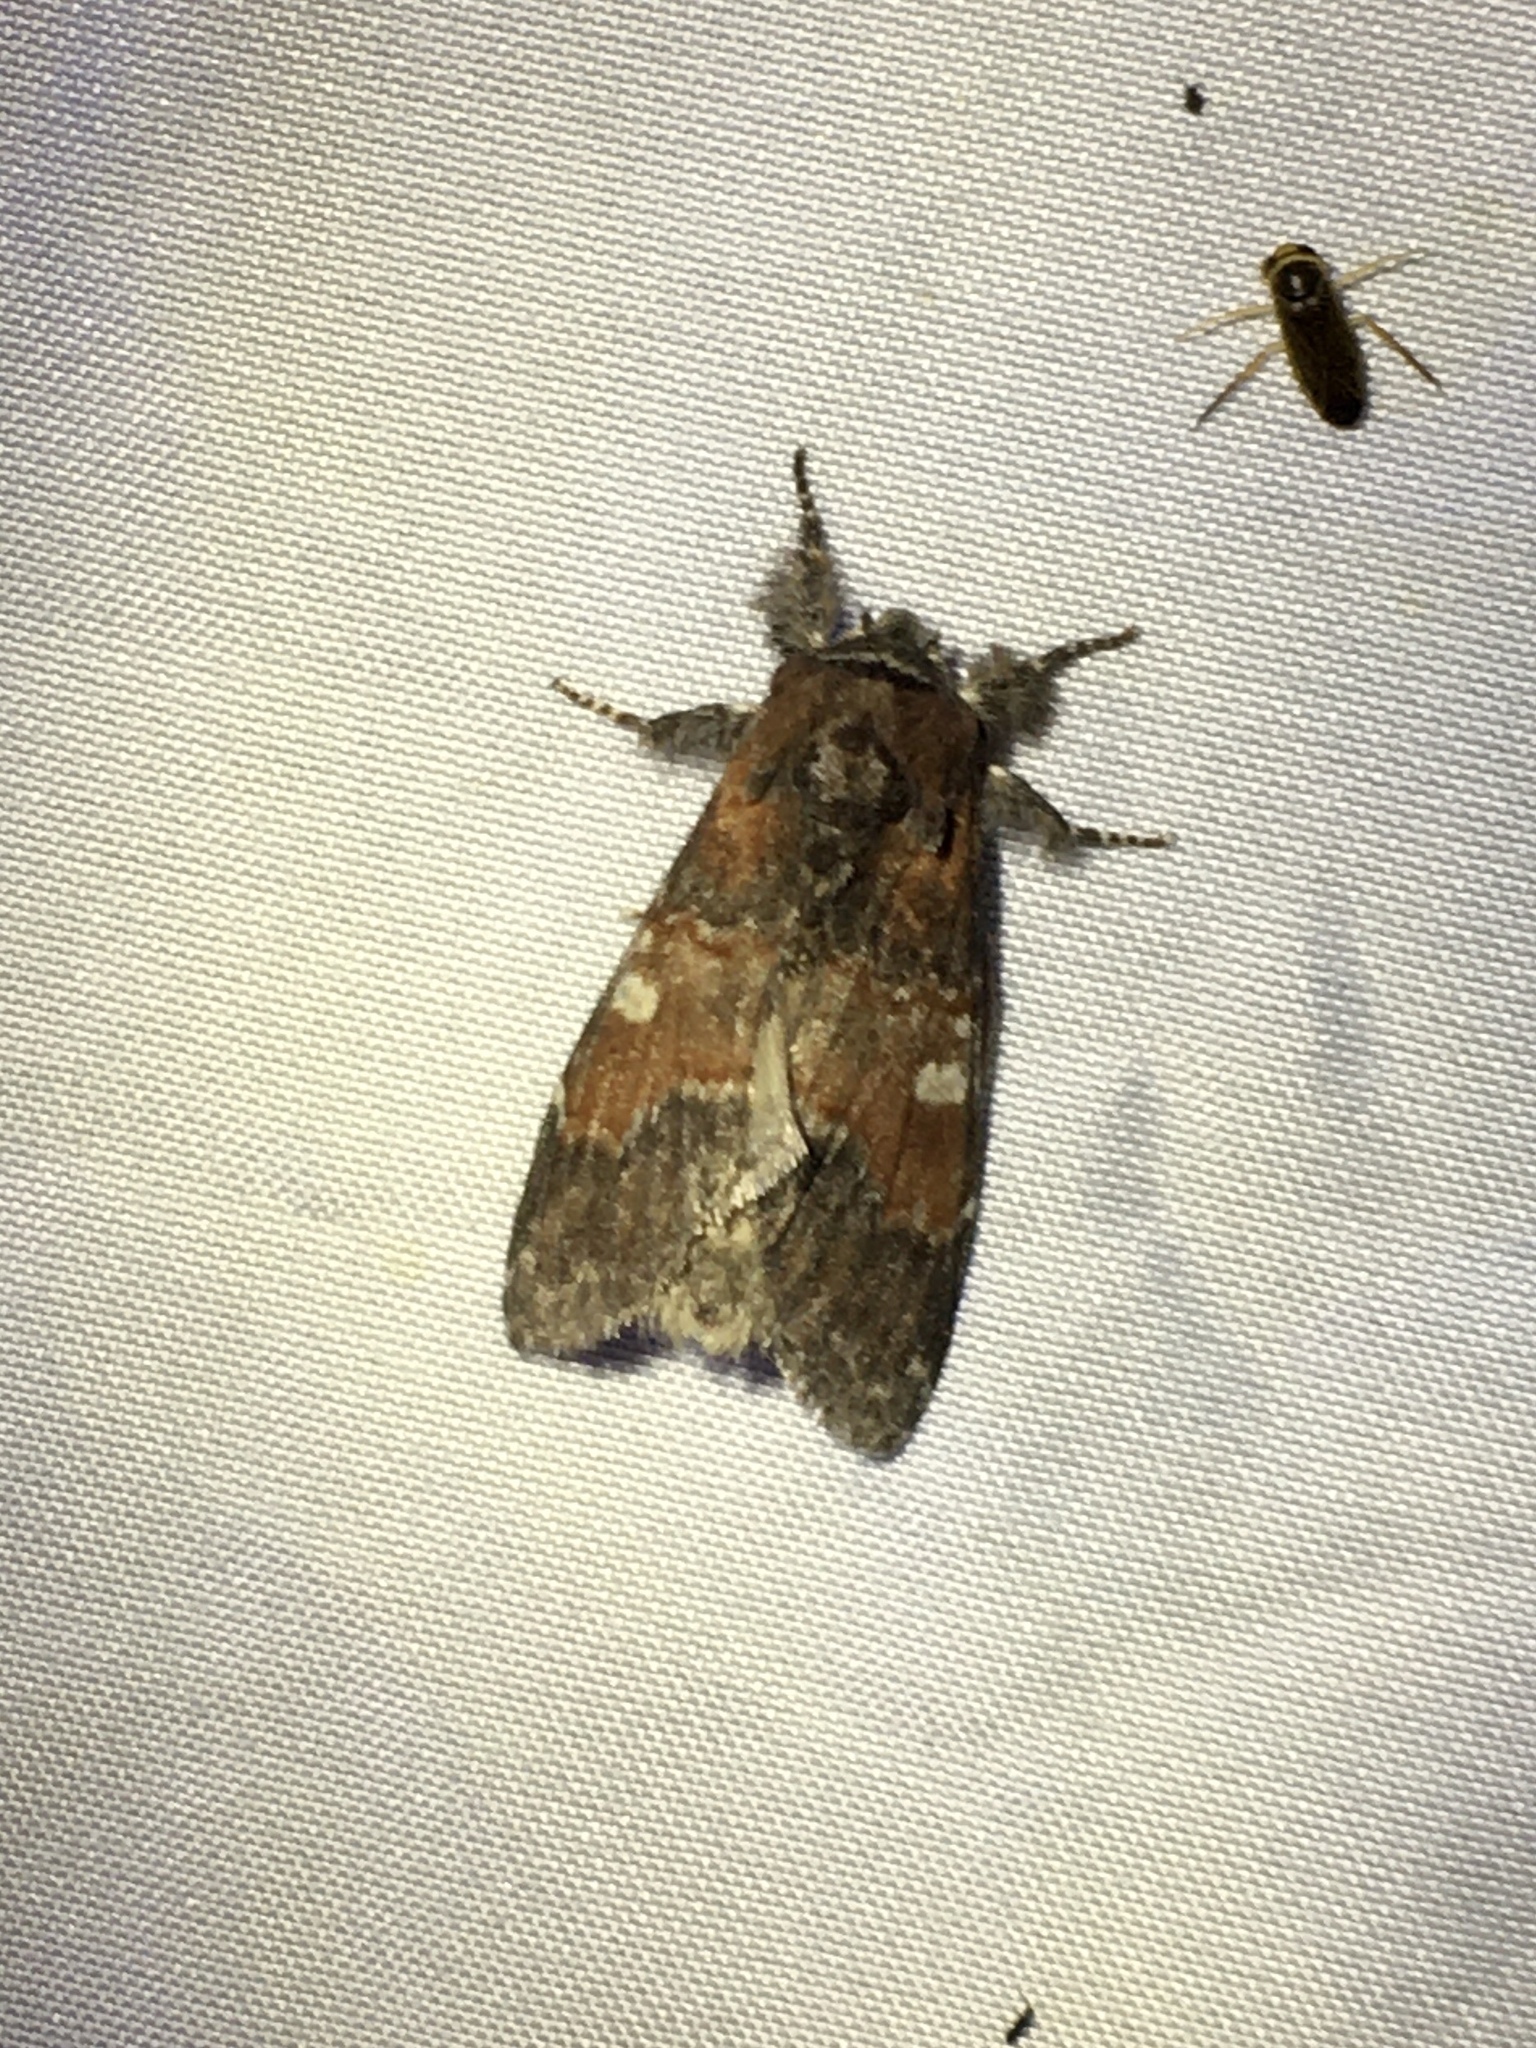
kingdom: Animalia
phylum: Arthropoda
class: Insecta
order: Lepidoptera
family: Notodontidae
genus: Peridea
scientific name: Peridea ferruginea
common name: Chocolate prominent
